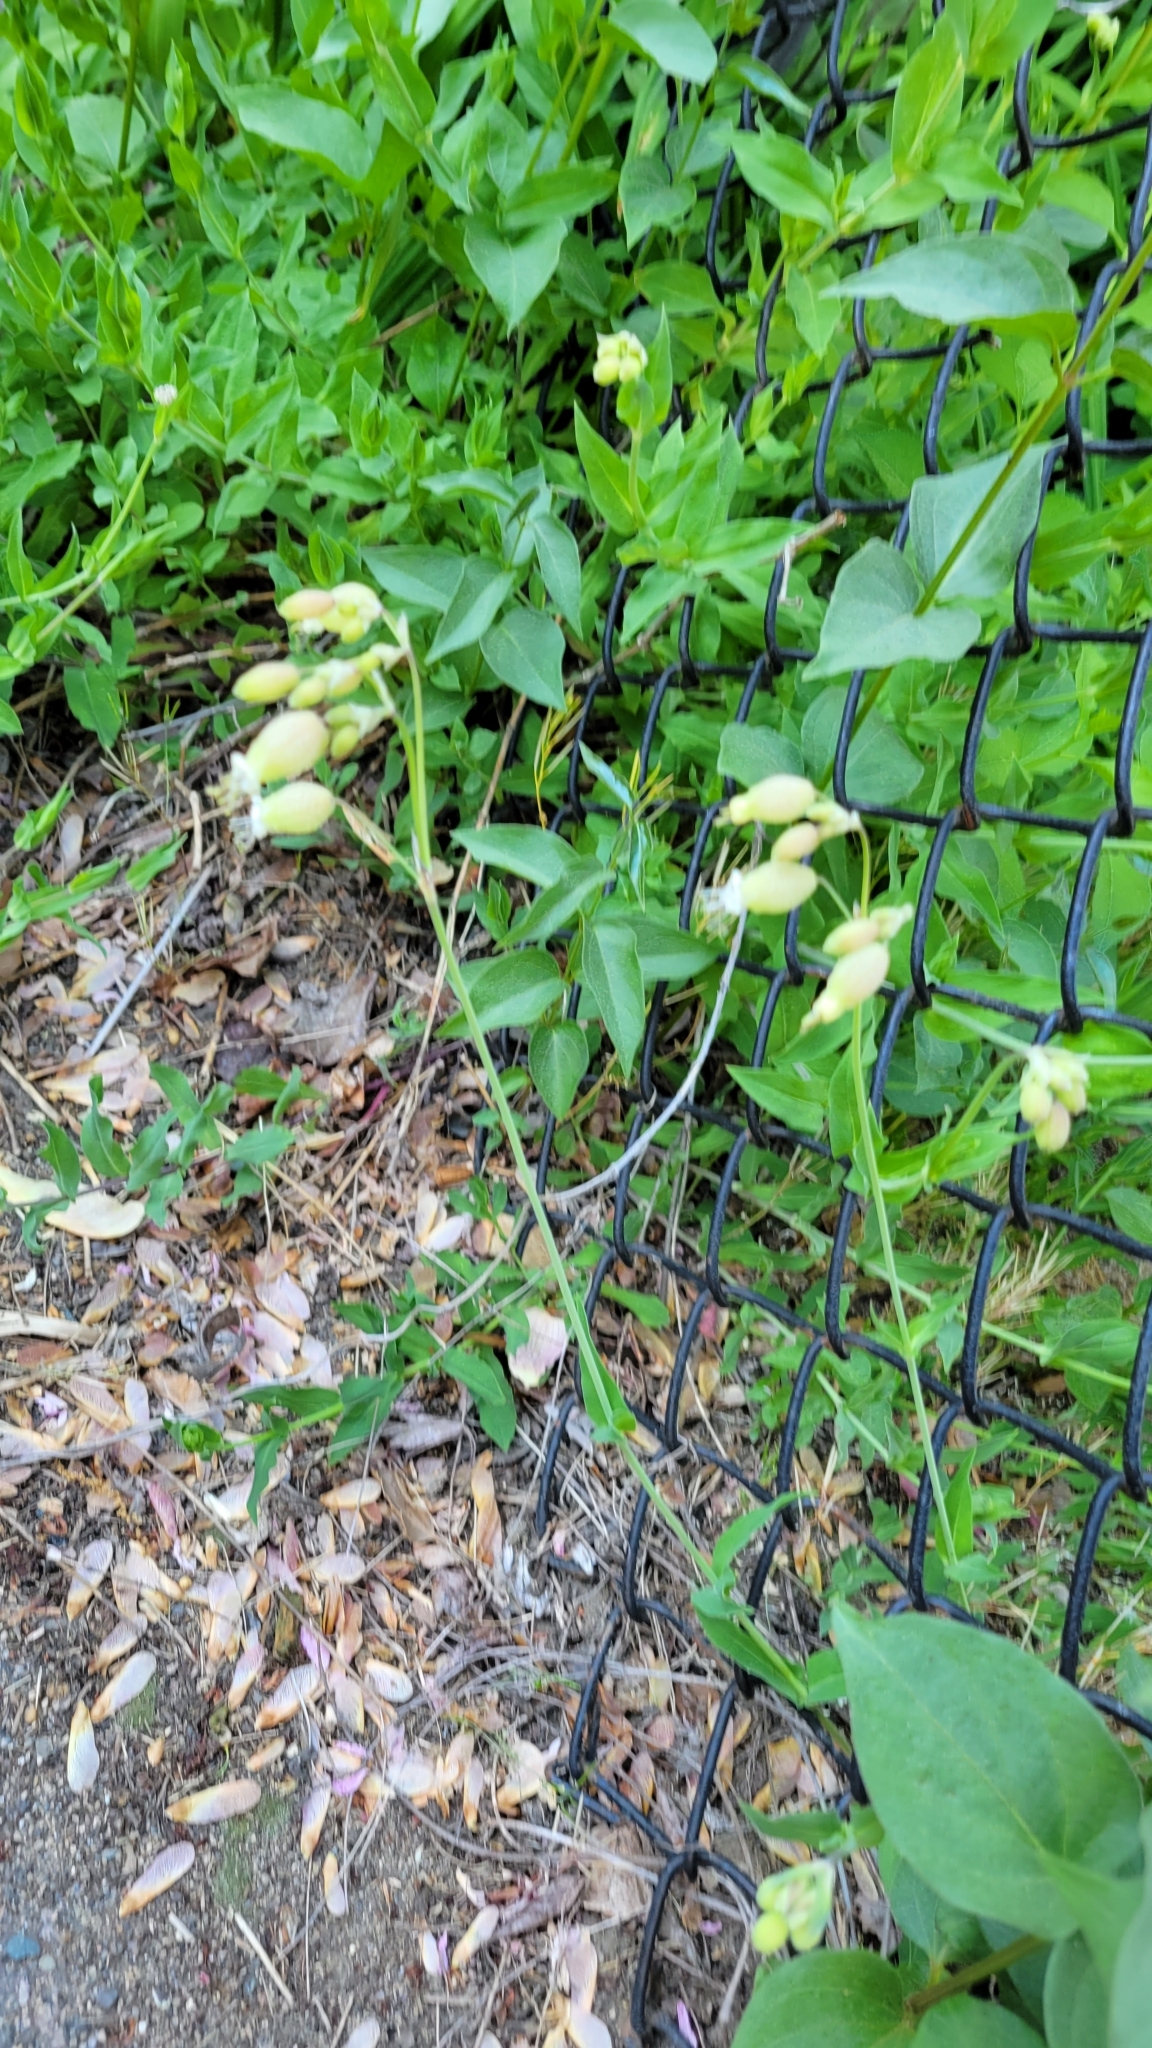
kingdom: Plantae
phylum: Tracheophyta
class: Magnoliopsida
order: Caryophyllales
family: Caryophyllaceae
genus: Silene
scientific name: Silene vulgaris
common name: Bladder campion
